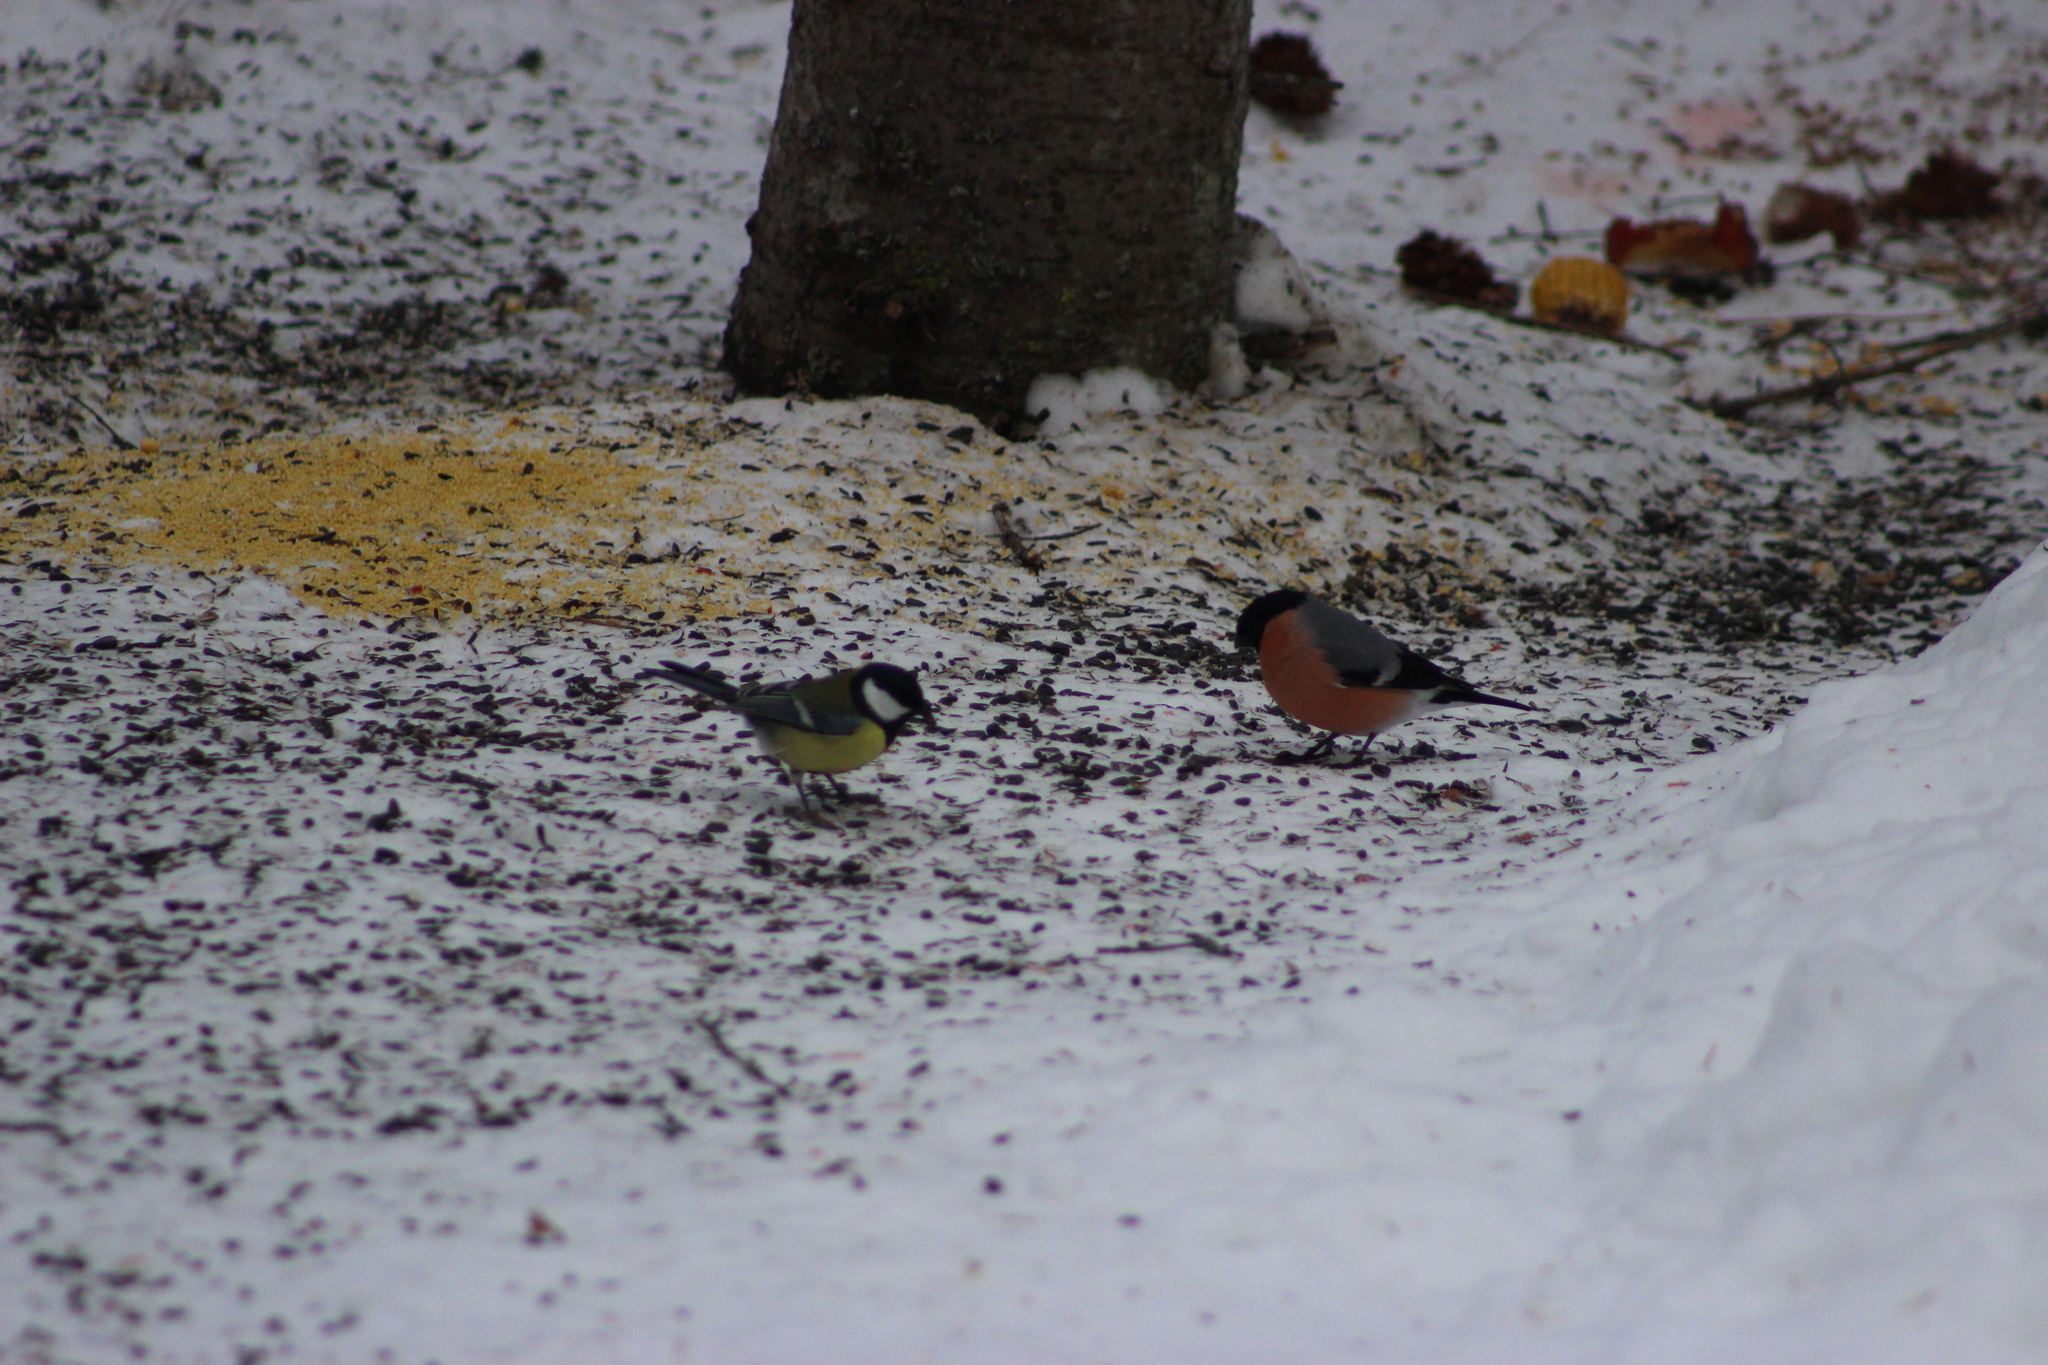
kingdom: Animalia
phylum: Chordata
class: Aves
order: Passeriformes
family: Fringillidae
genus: Pyrrhula
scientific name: Pyrrhula pyrrhula
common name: Eurasian bullfinch
